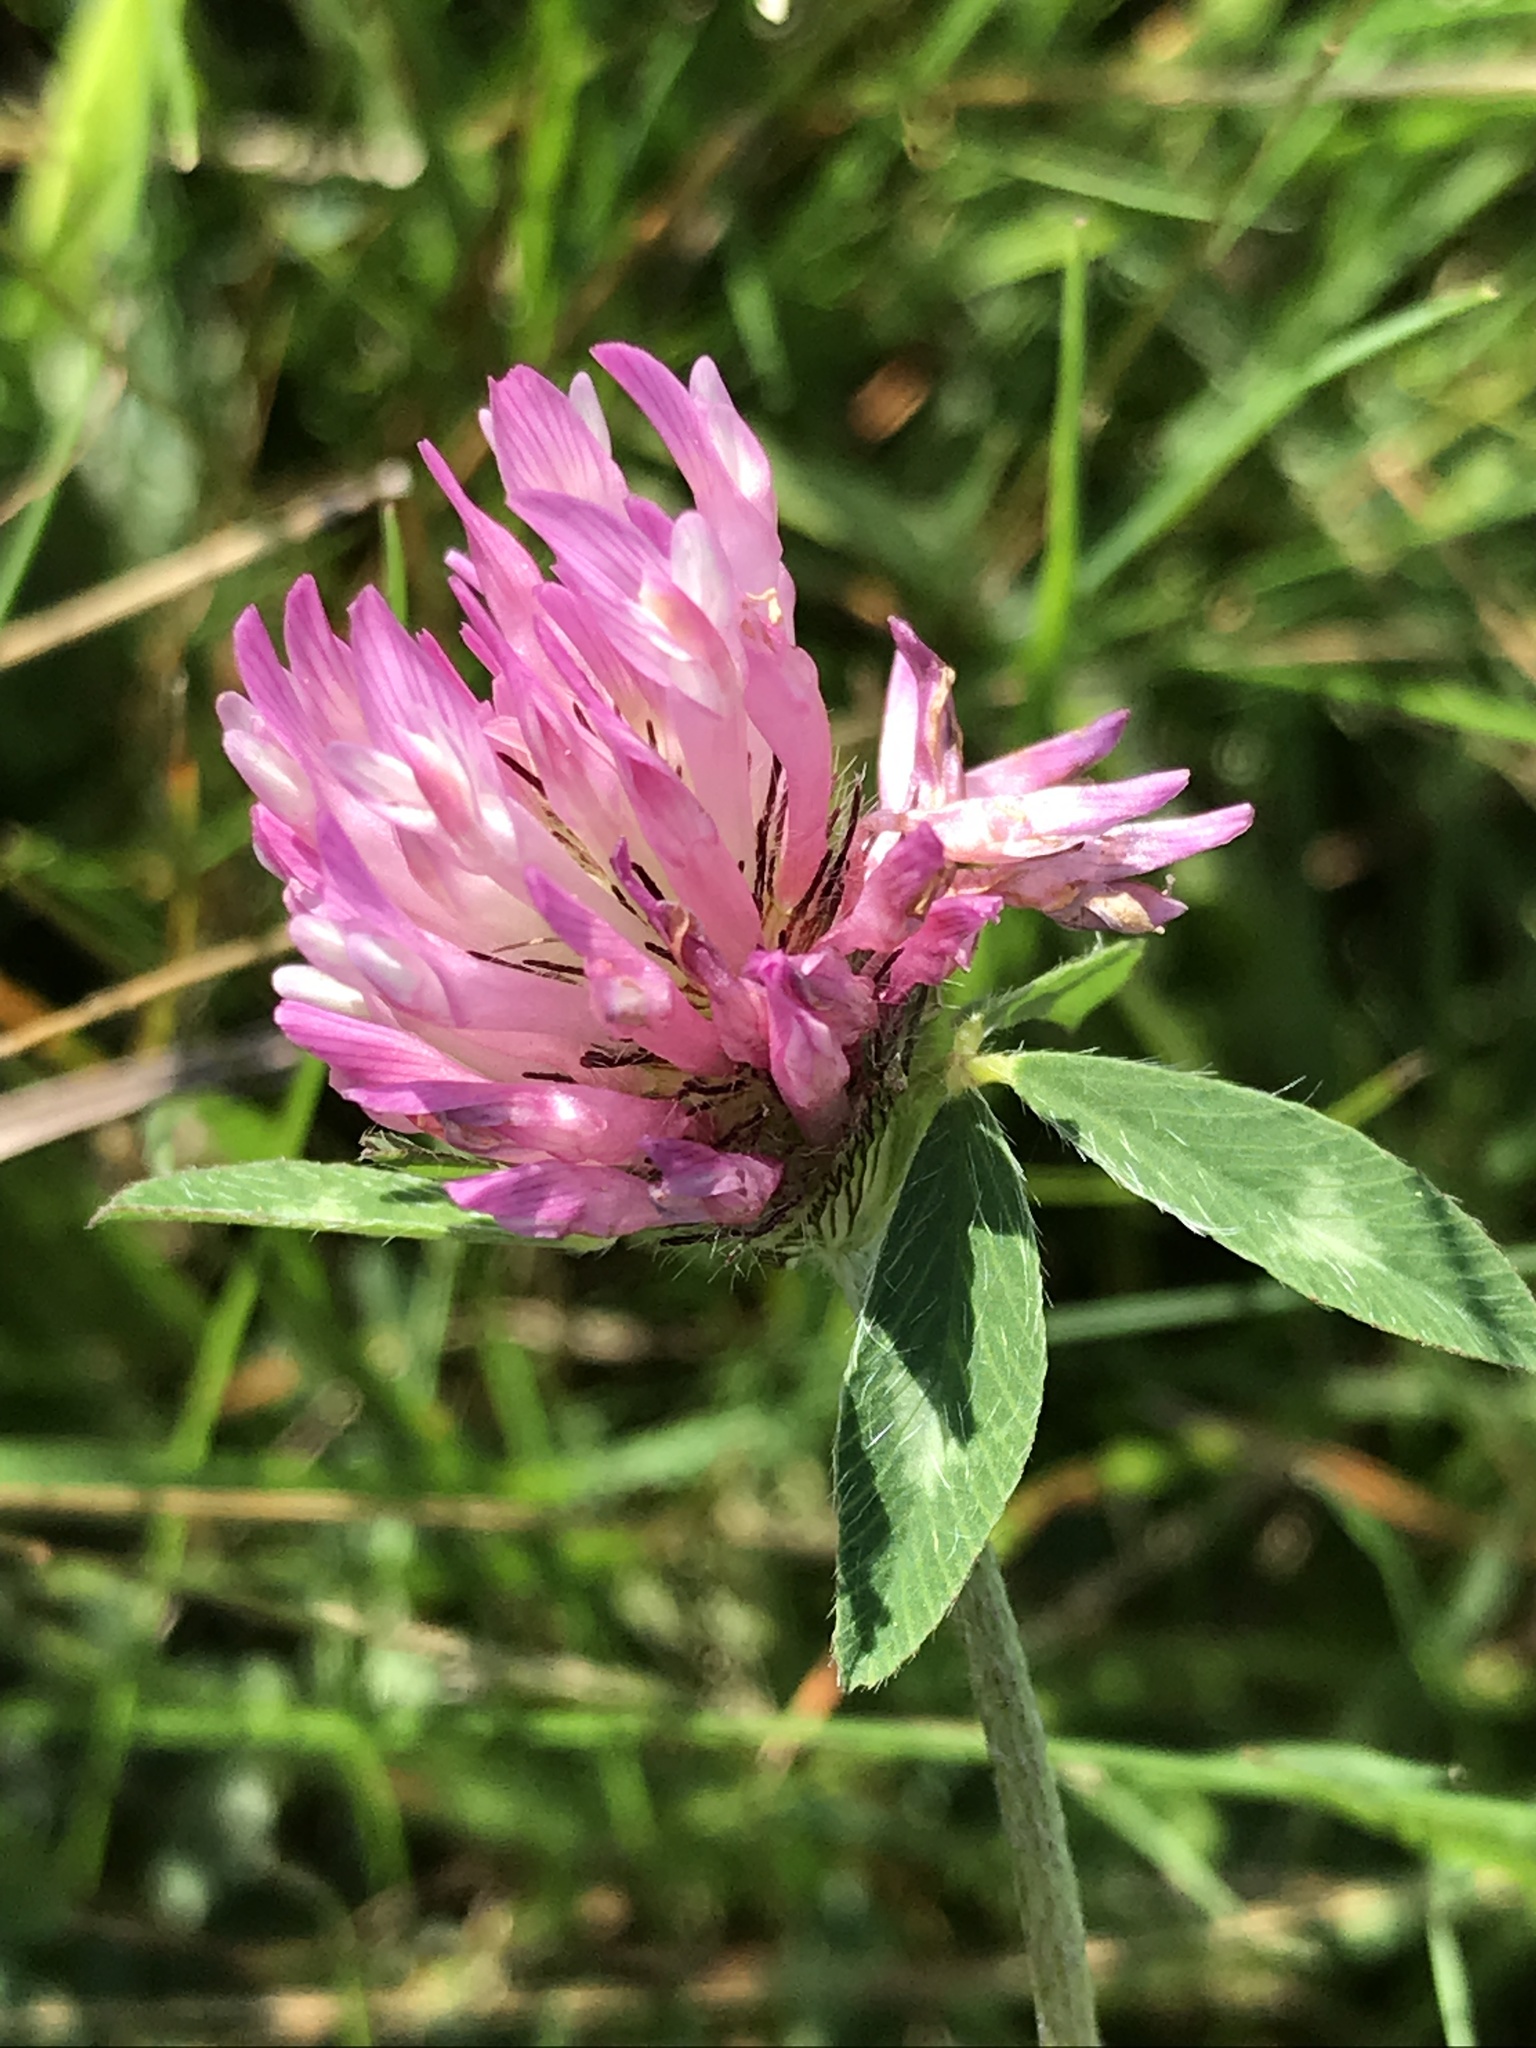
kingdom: Plantae
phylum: Tracheophyta
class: Magnoliopsida
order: Fabales
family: Fabaceae
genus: Trifolium
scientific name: Trifolium pratense
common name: Red clover
